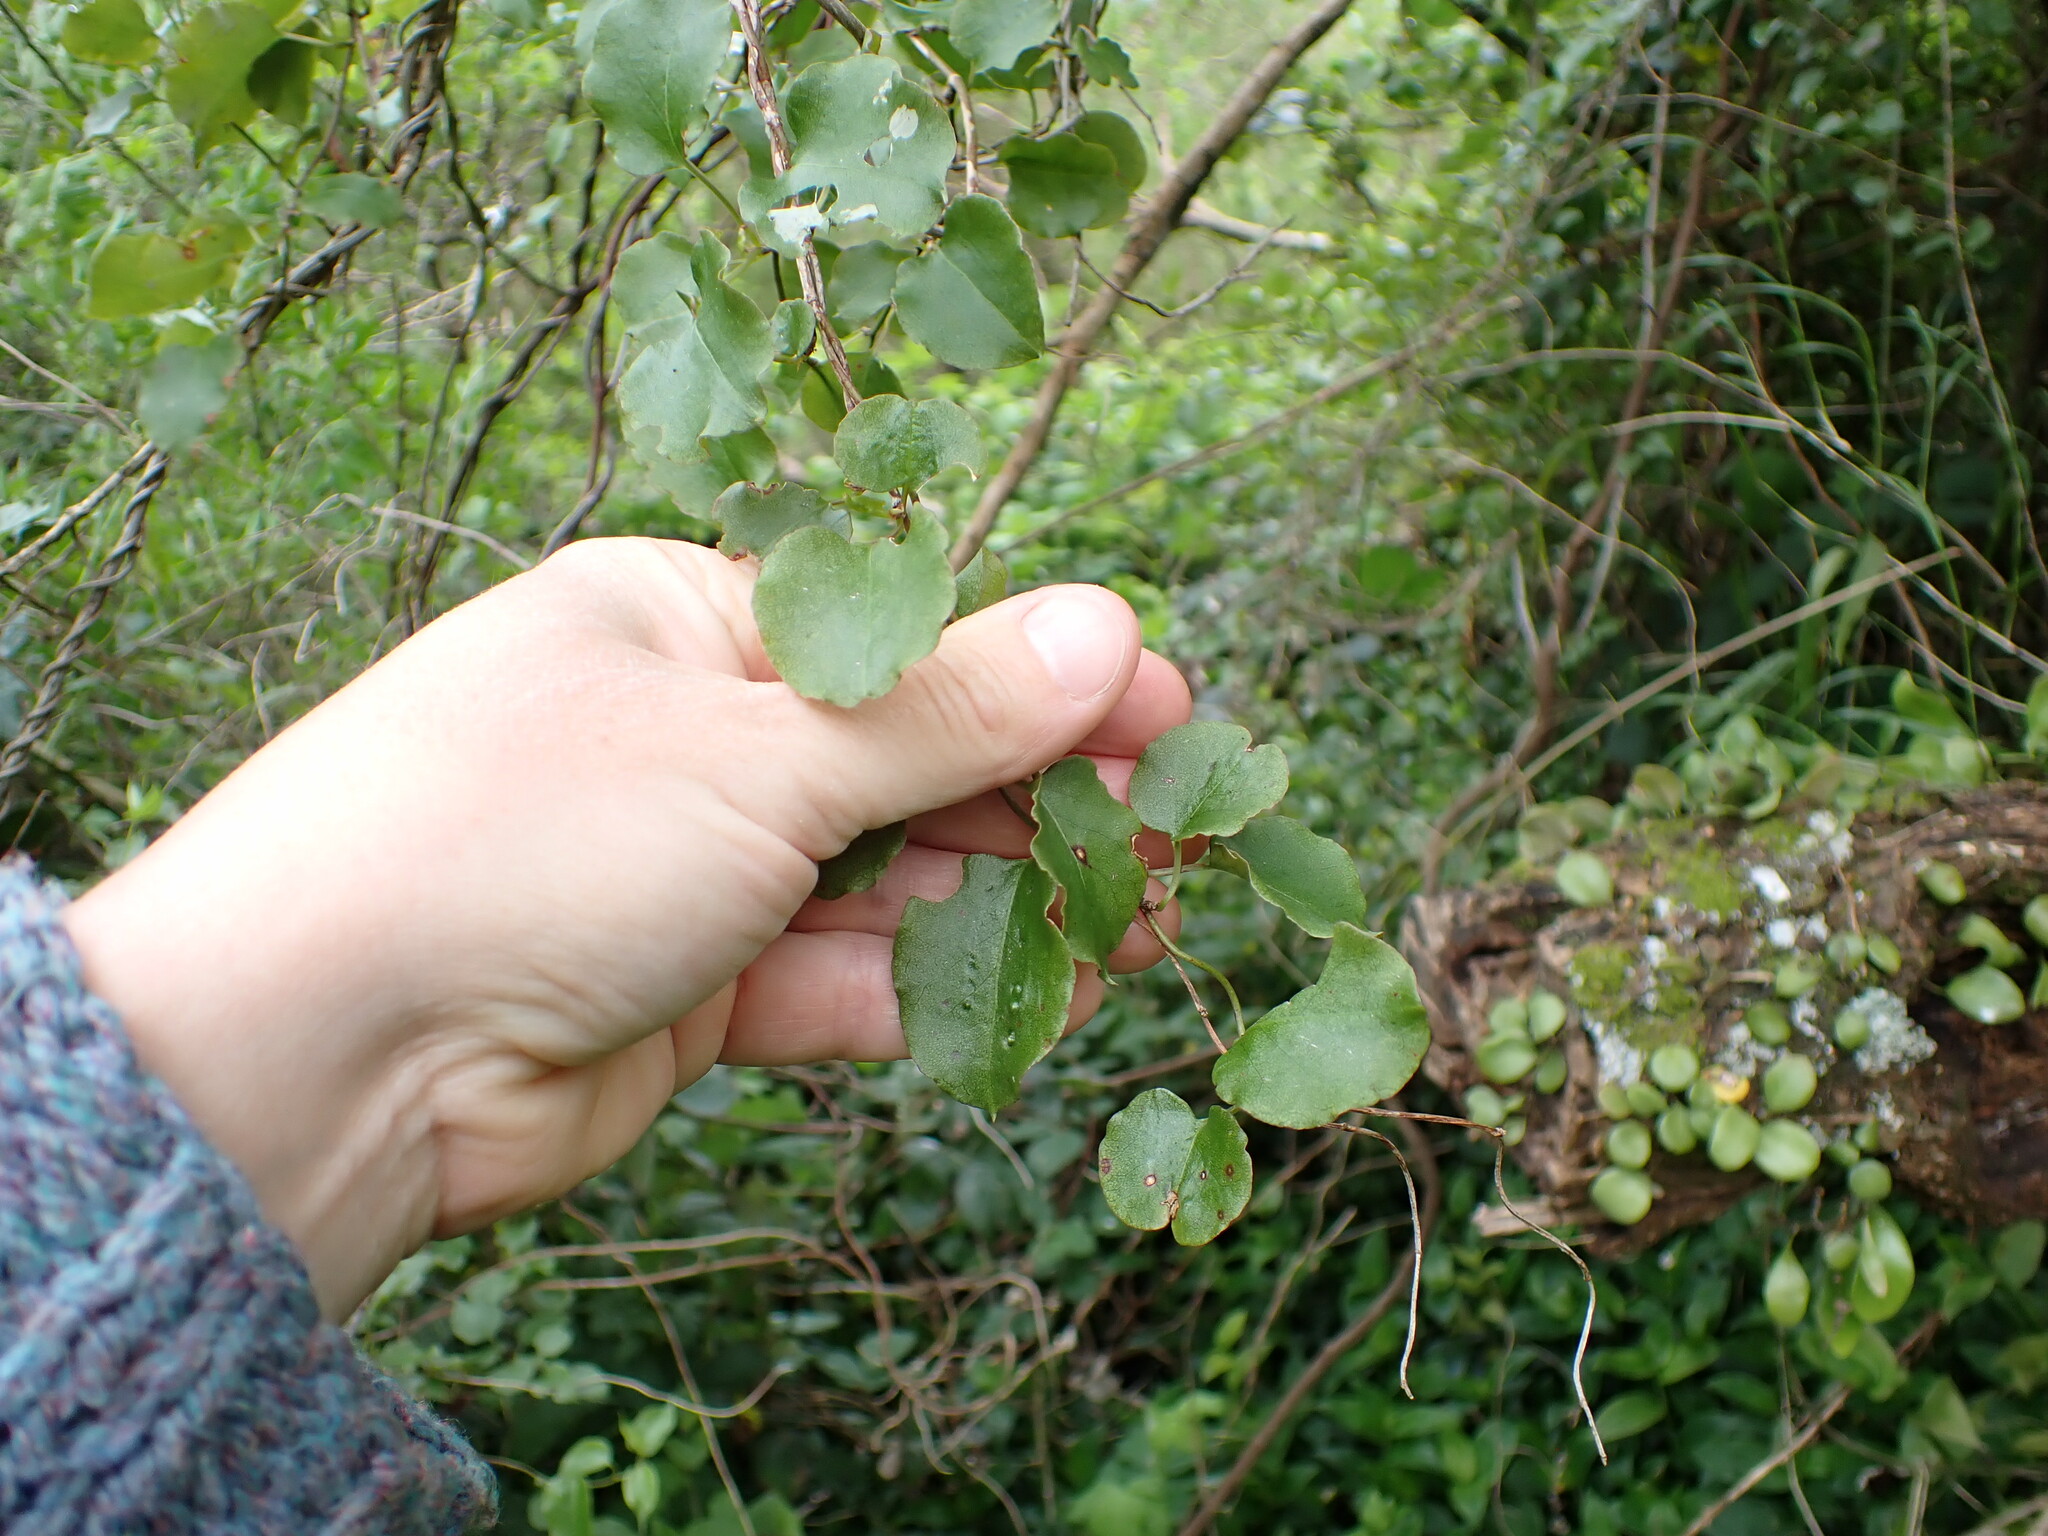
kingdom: Plantae
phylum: Tracheophyta
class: Magnoliopsida
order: Caryophyllales
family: Polygonaceae
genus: Muehlenbeckia
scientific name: Muehlenbeckia australis
